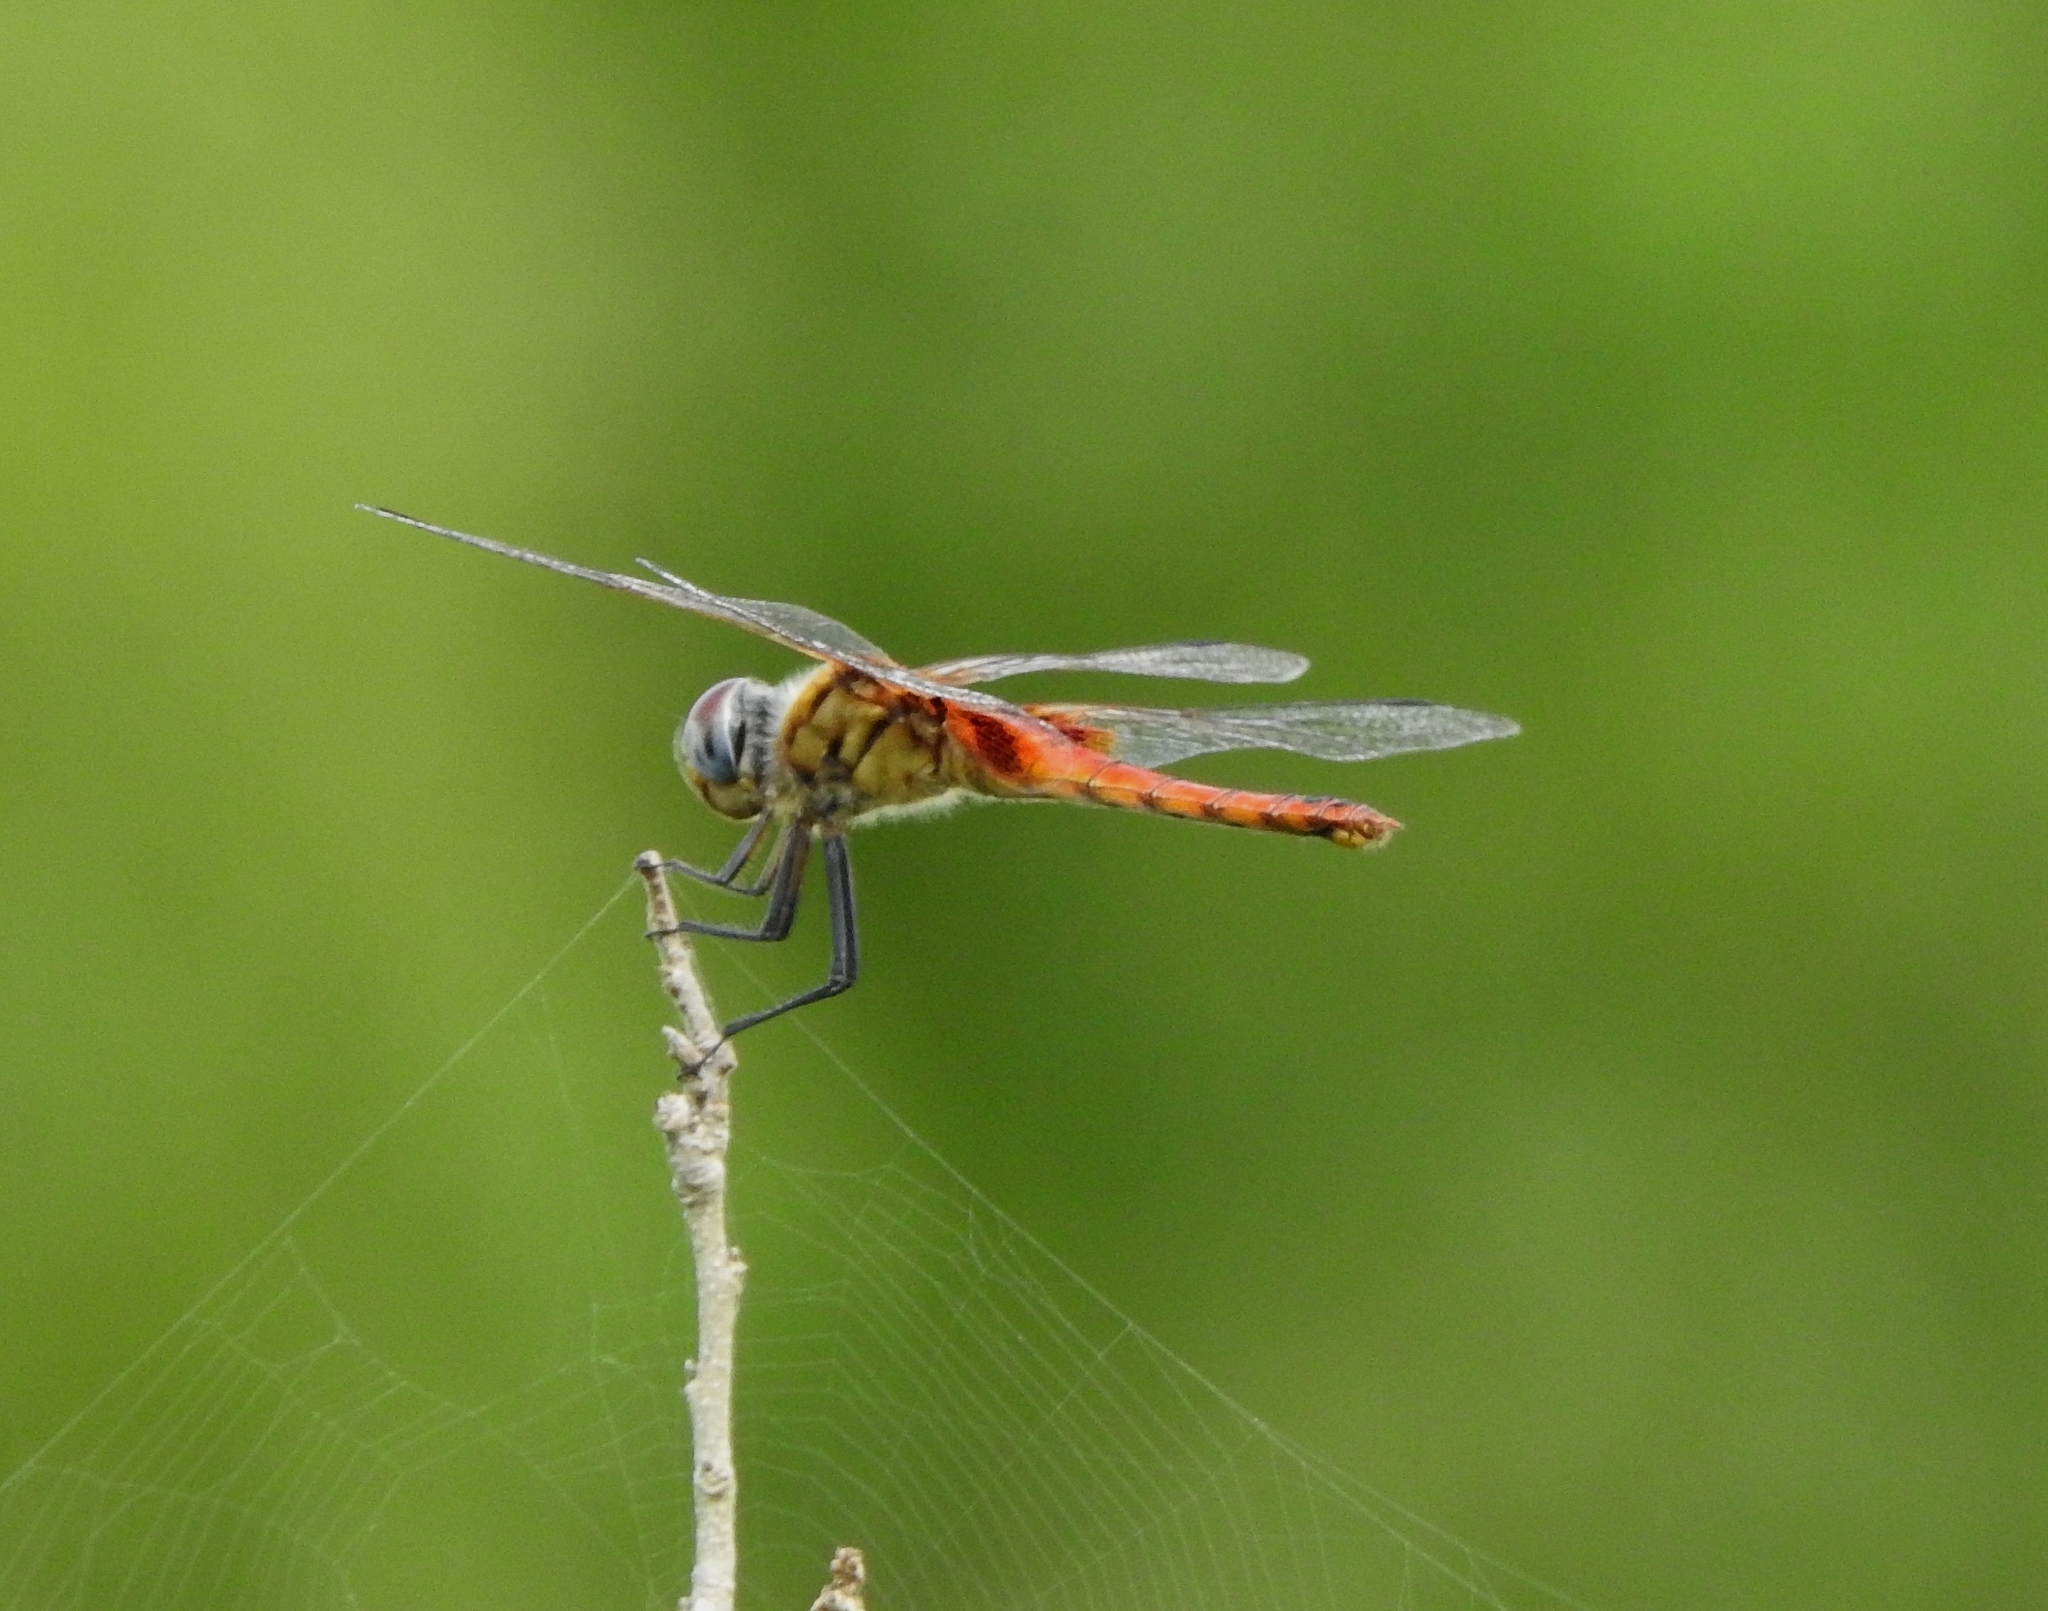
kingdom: Animalia
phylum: Arthropoda
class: Insecta
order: Odonata
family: Libellulidae
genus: Urothemis
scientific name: Urothemis signata
